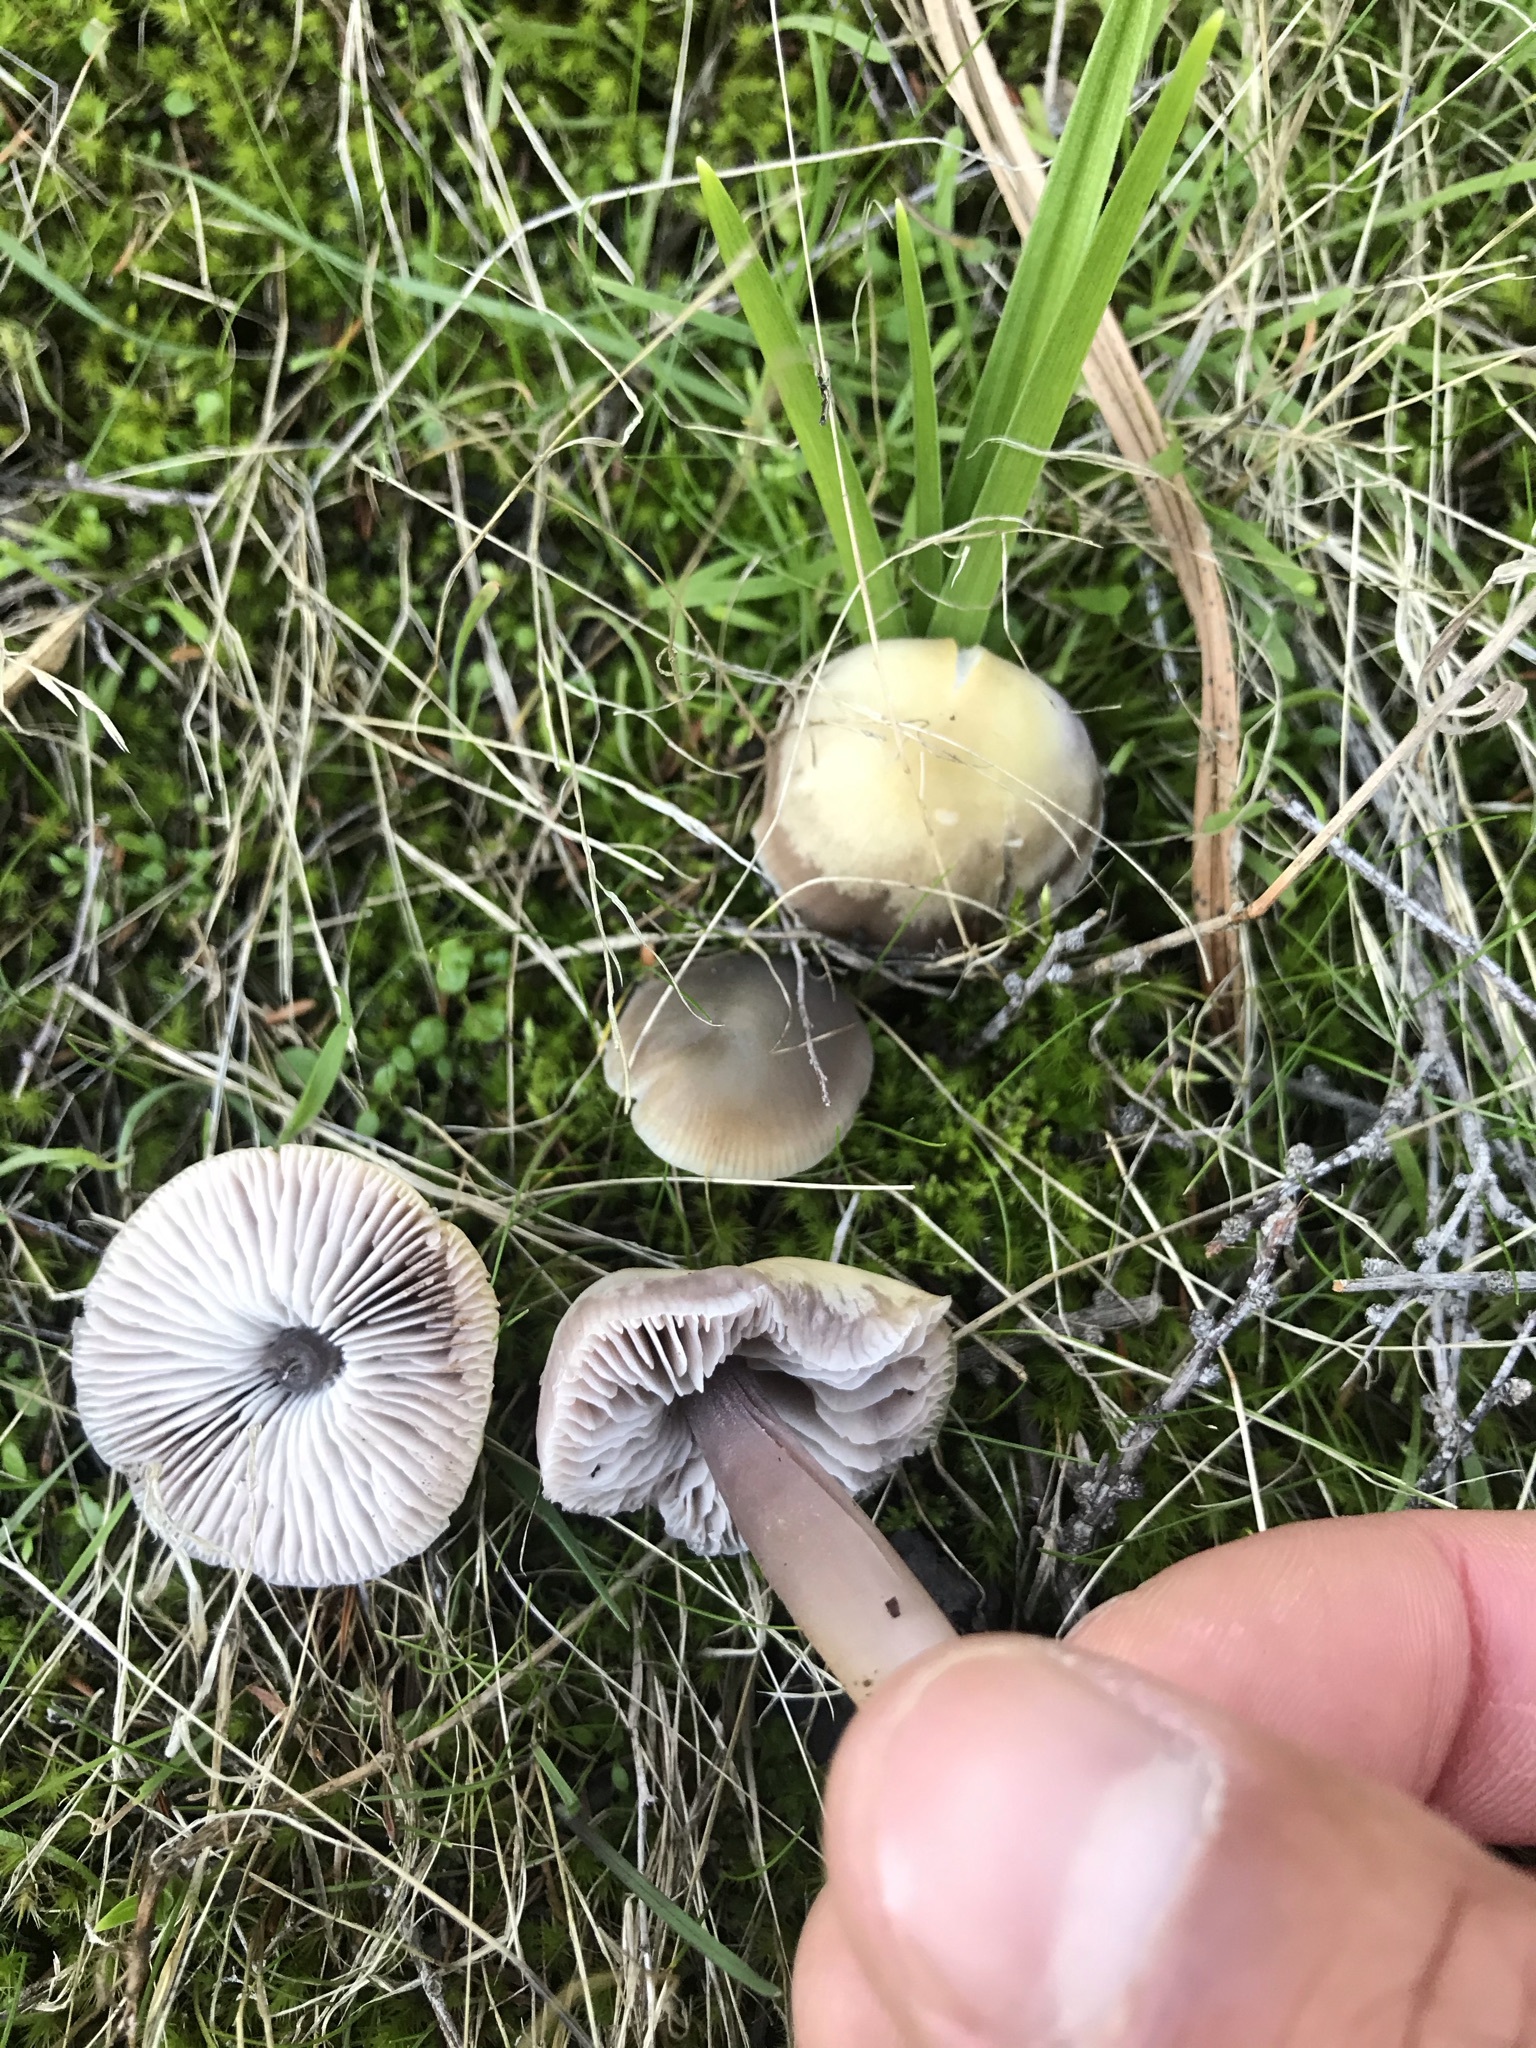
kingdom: Fungi
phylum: Basidiomycota
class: Agaricomycetes
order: Agaricales
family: Mycenaceae
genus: Mycena
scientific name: Mycena pura
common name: Lilac bonnet
